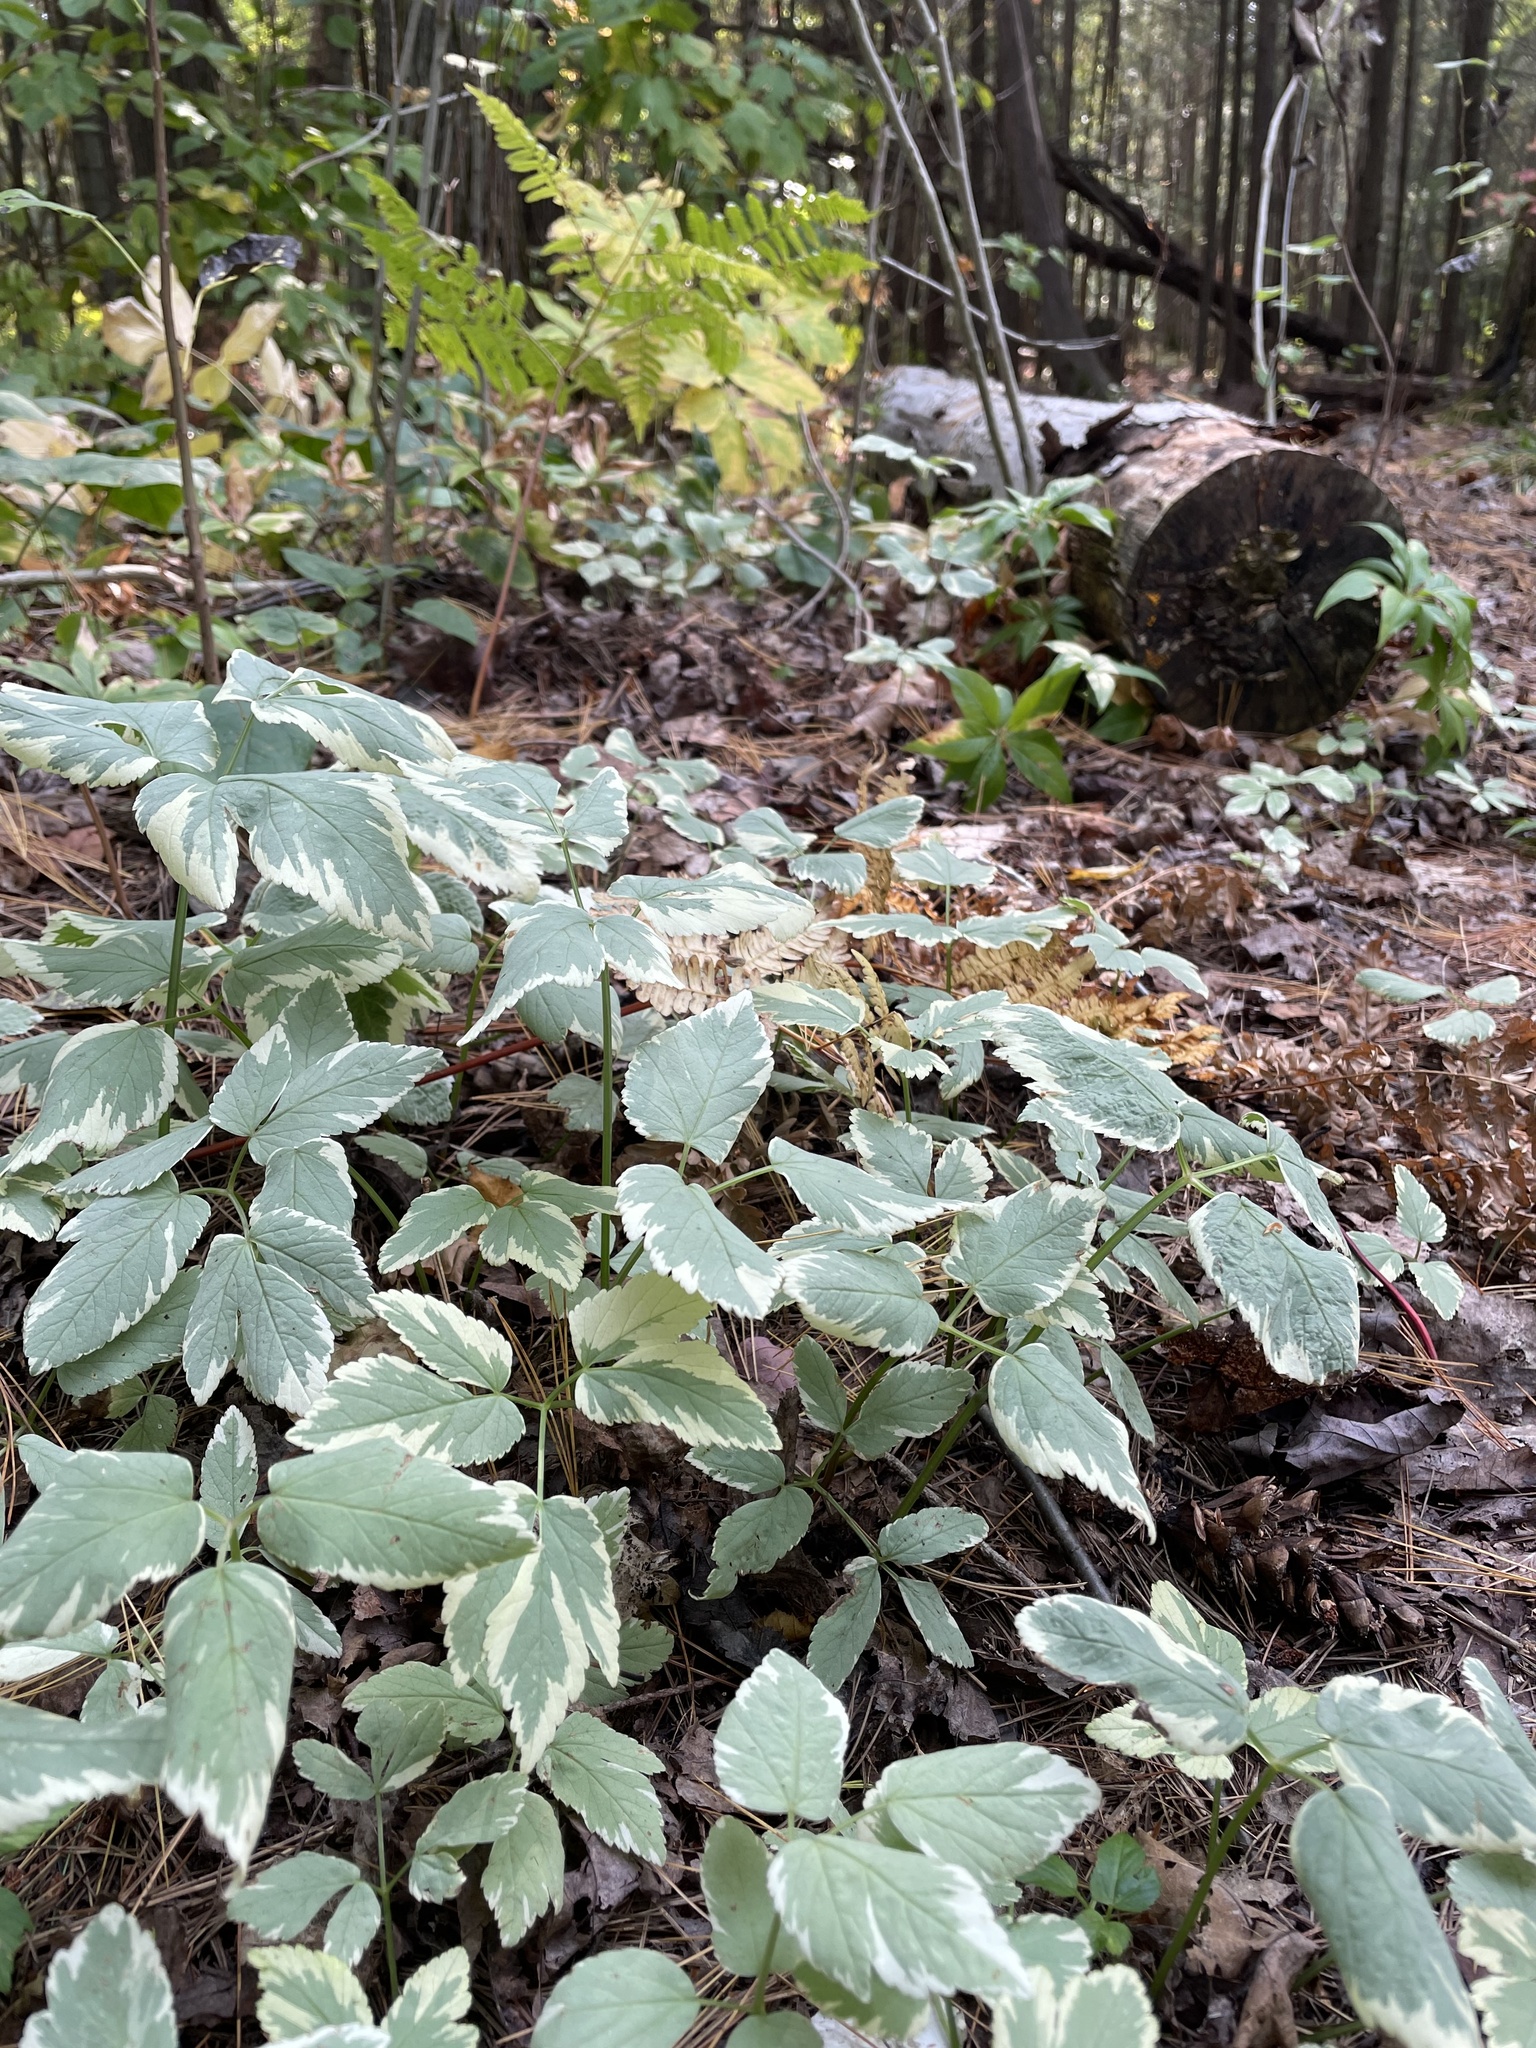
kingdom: Plantae
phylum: Tracheophyta
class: Magnoliopsida
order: Apiales
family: Apiaceae
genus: Aegopodium
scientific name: Aegopodium podagraria
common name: Ground-elder
